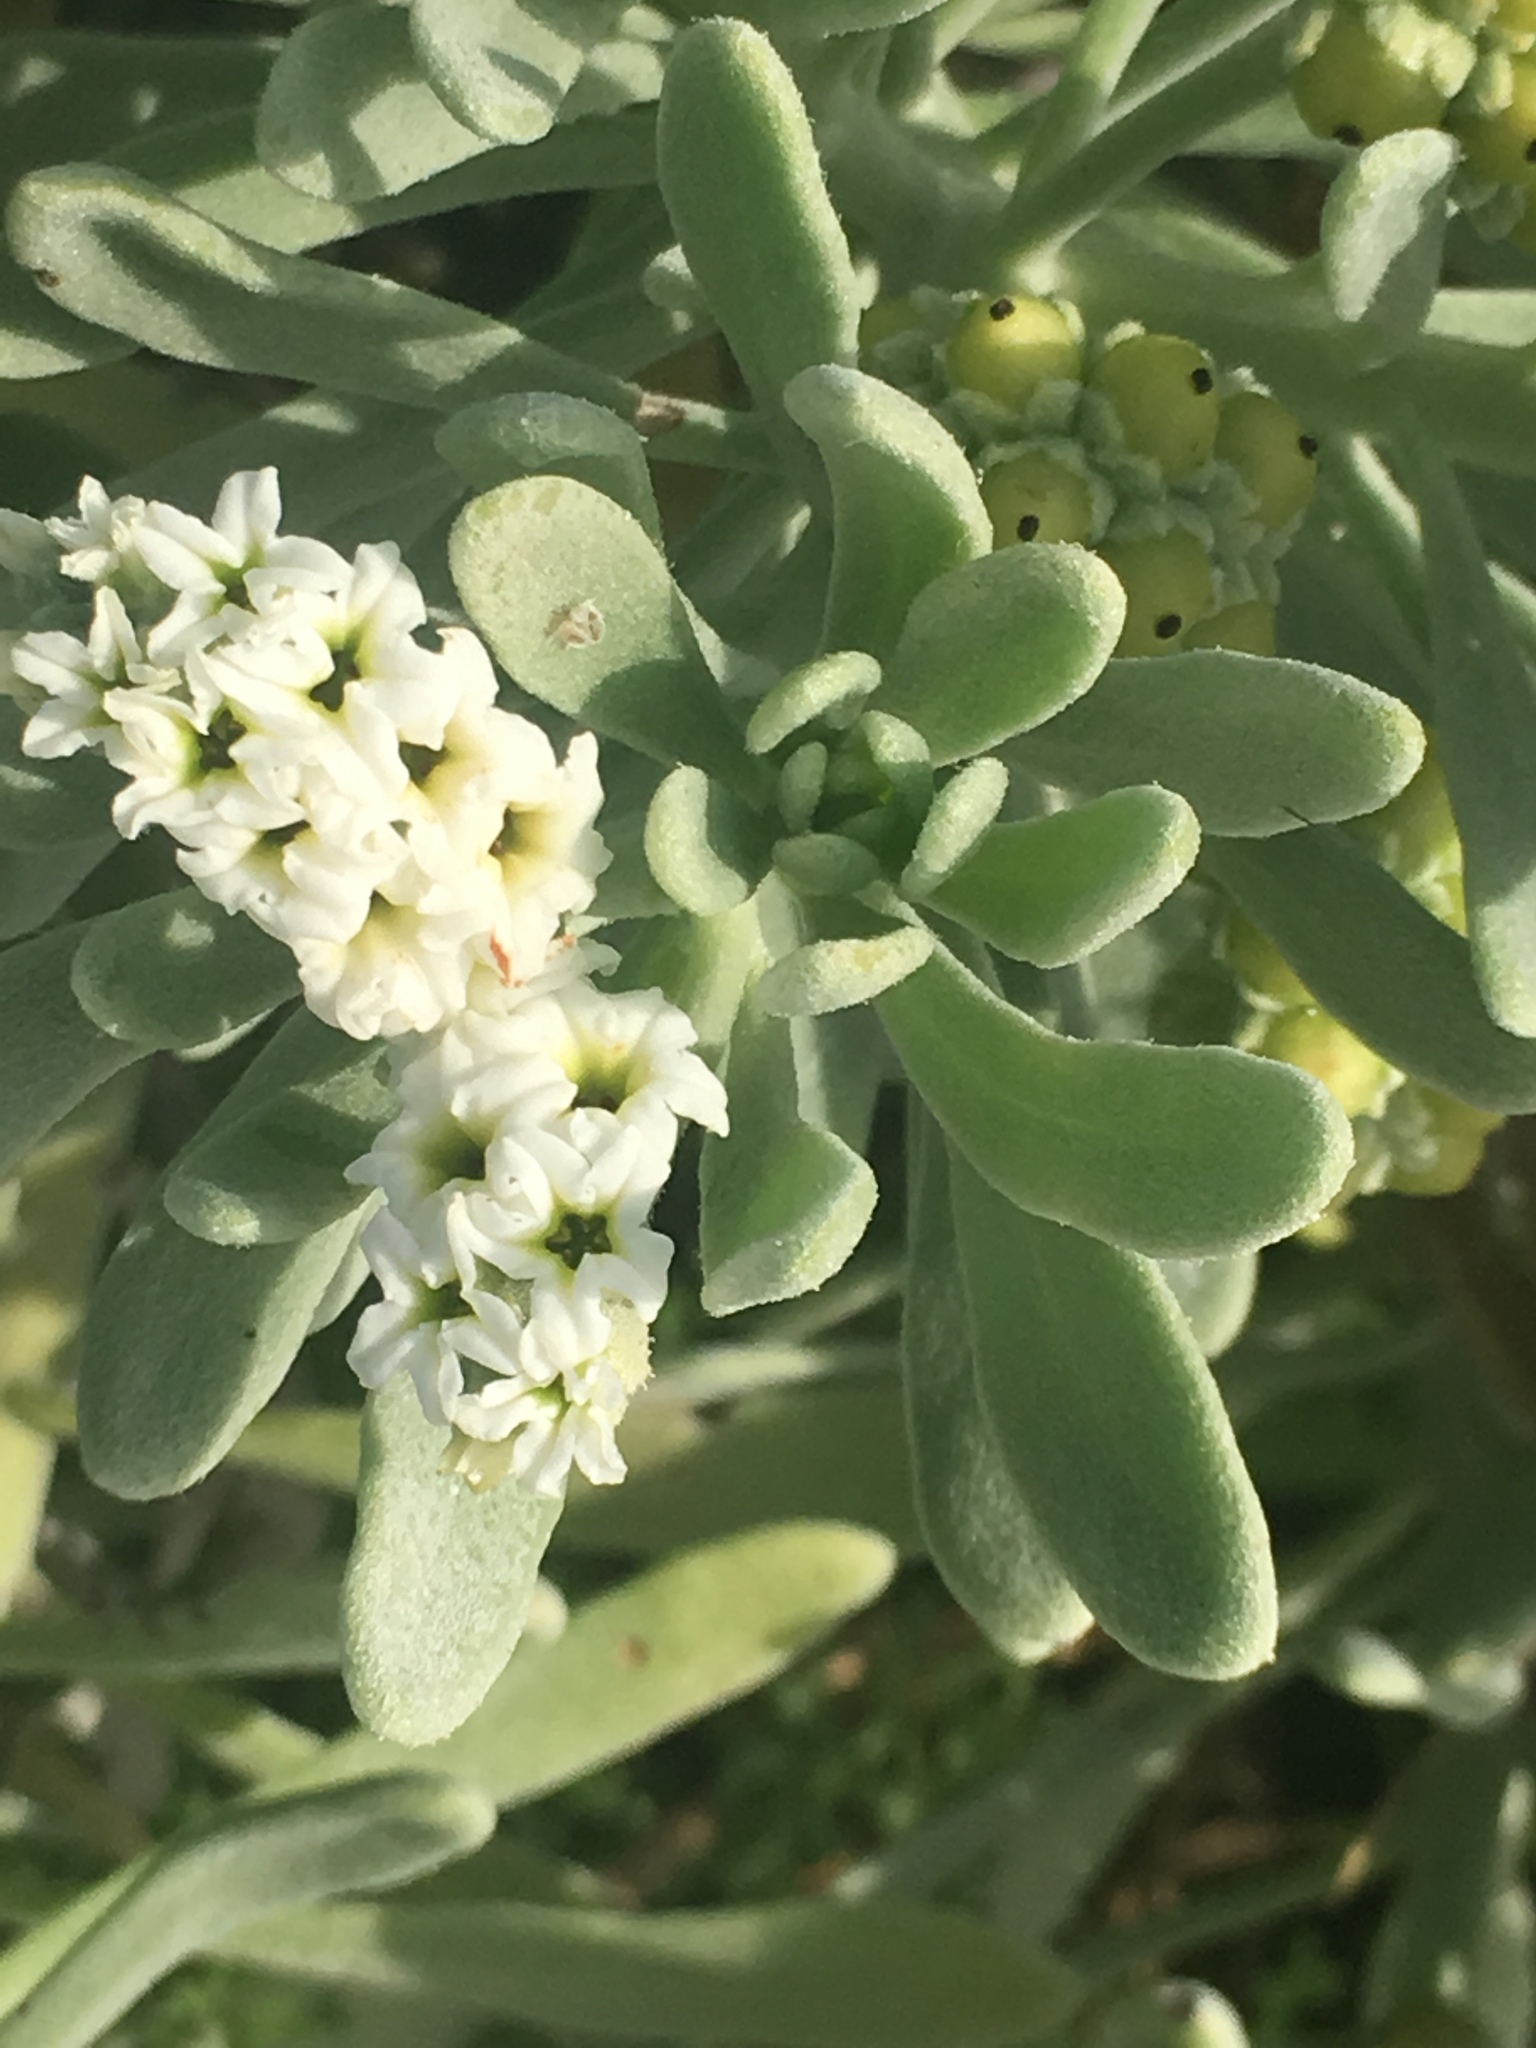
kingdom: Plantae
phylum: Tracheophyta
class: Magnoliopsida
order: Boraginales
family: Heliotropiaceae
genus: Tournefortia
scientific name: Tournefortia gnaphalodes
